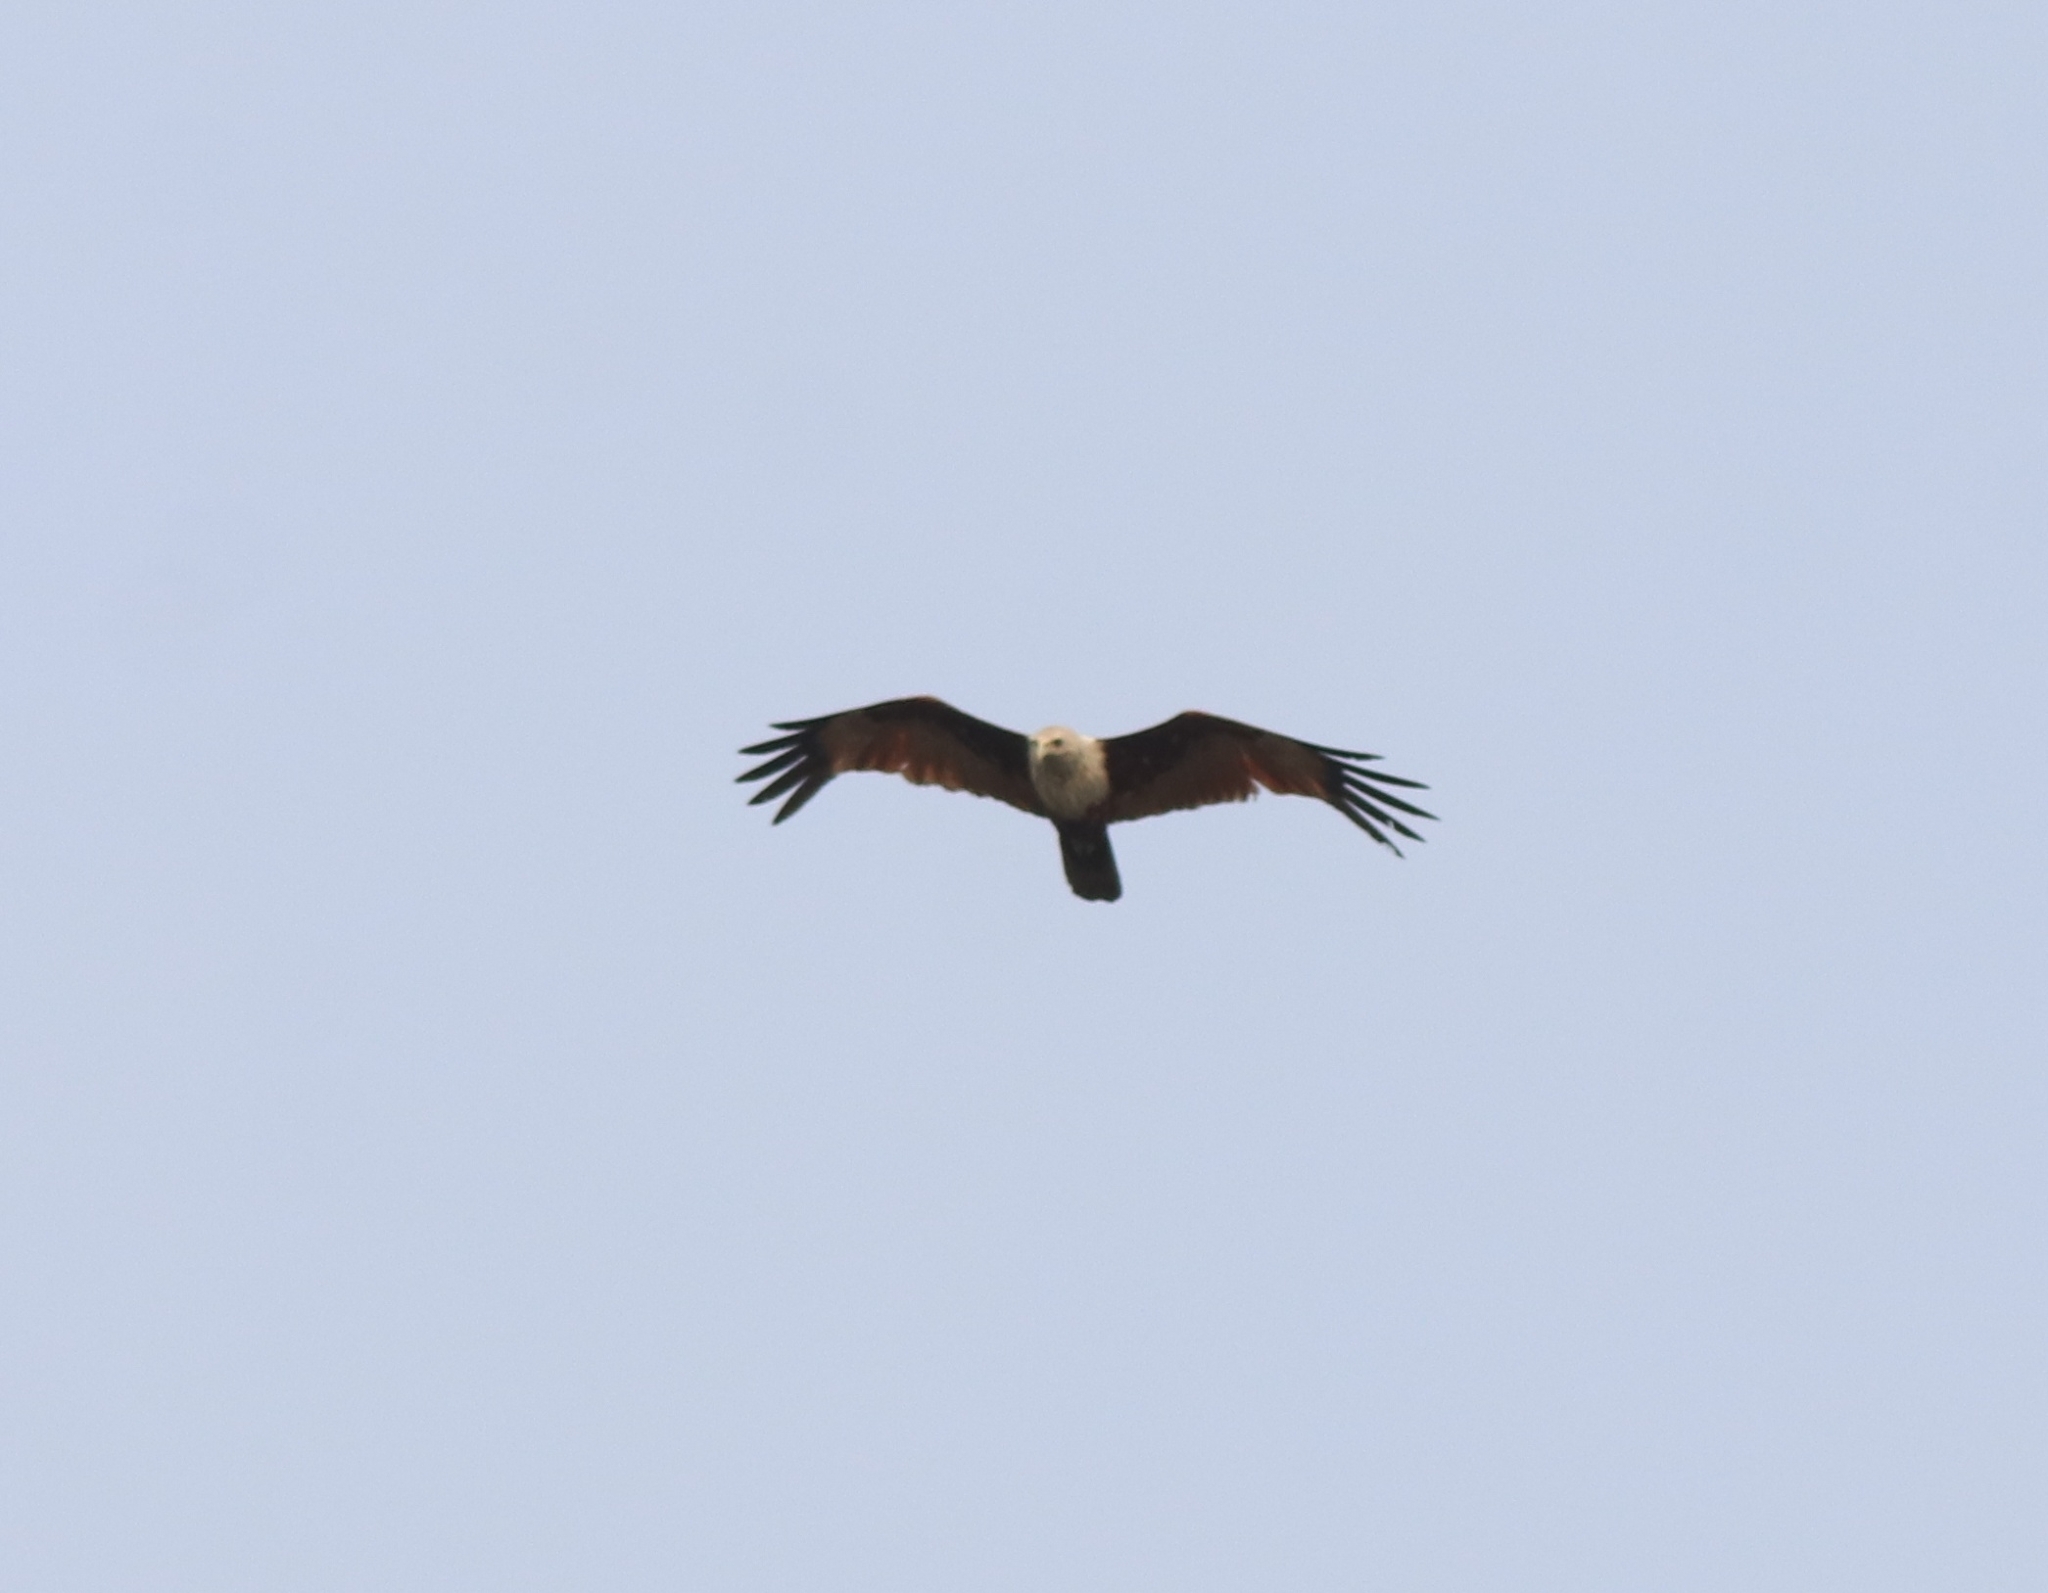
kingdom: Animalia
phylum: Chordata
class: Aves
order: Accipitriformes
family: Accipitridae
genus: Haliastur
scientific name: Haliastur indus
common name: Brahminy kite
